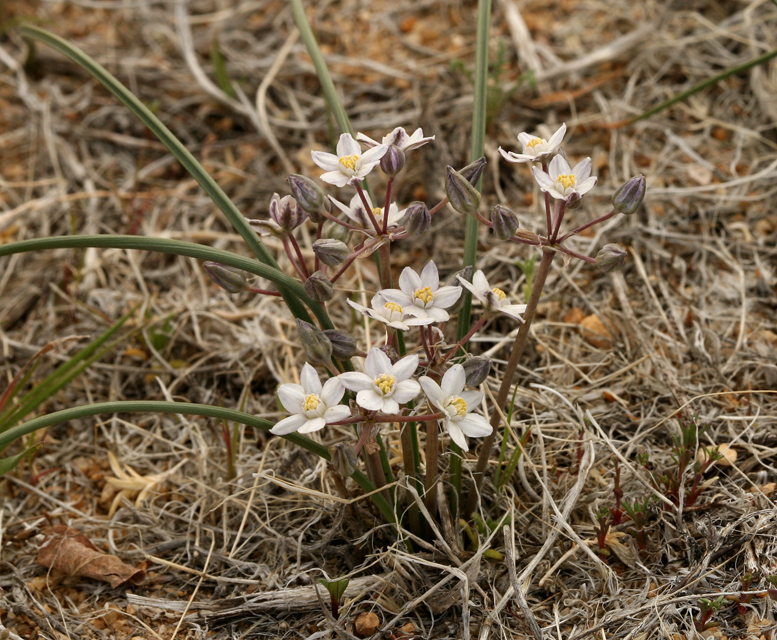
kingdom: Plantae
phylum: Tracheophyta
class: Liliopsida
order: Asparagales
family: Asparagaceae
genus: Muilla
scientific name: Muilla coronata
